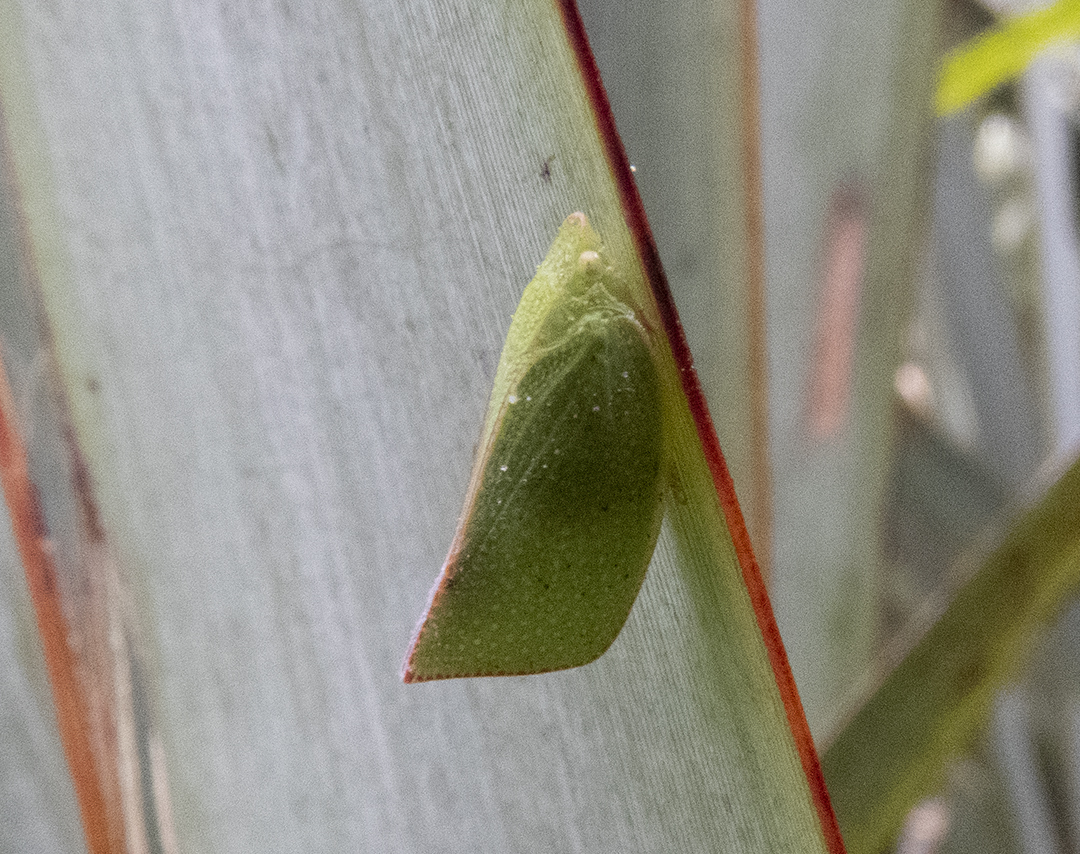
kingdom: Animalia
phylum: Arthropoda
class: Insecta
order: Hemiptera
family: Flatidae
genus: Siphanta
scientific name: Siphanta acuta
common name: Torpedo bug
